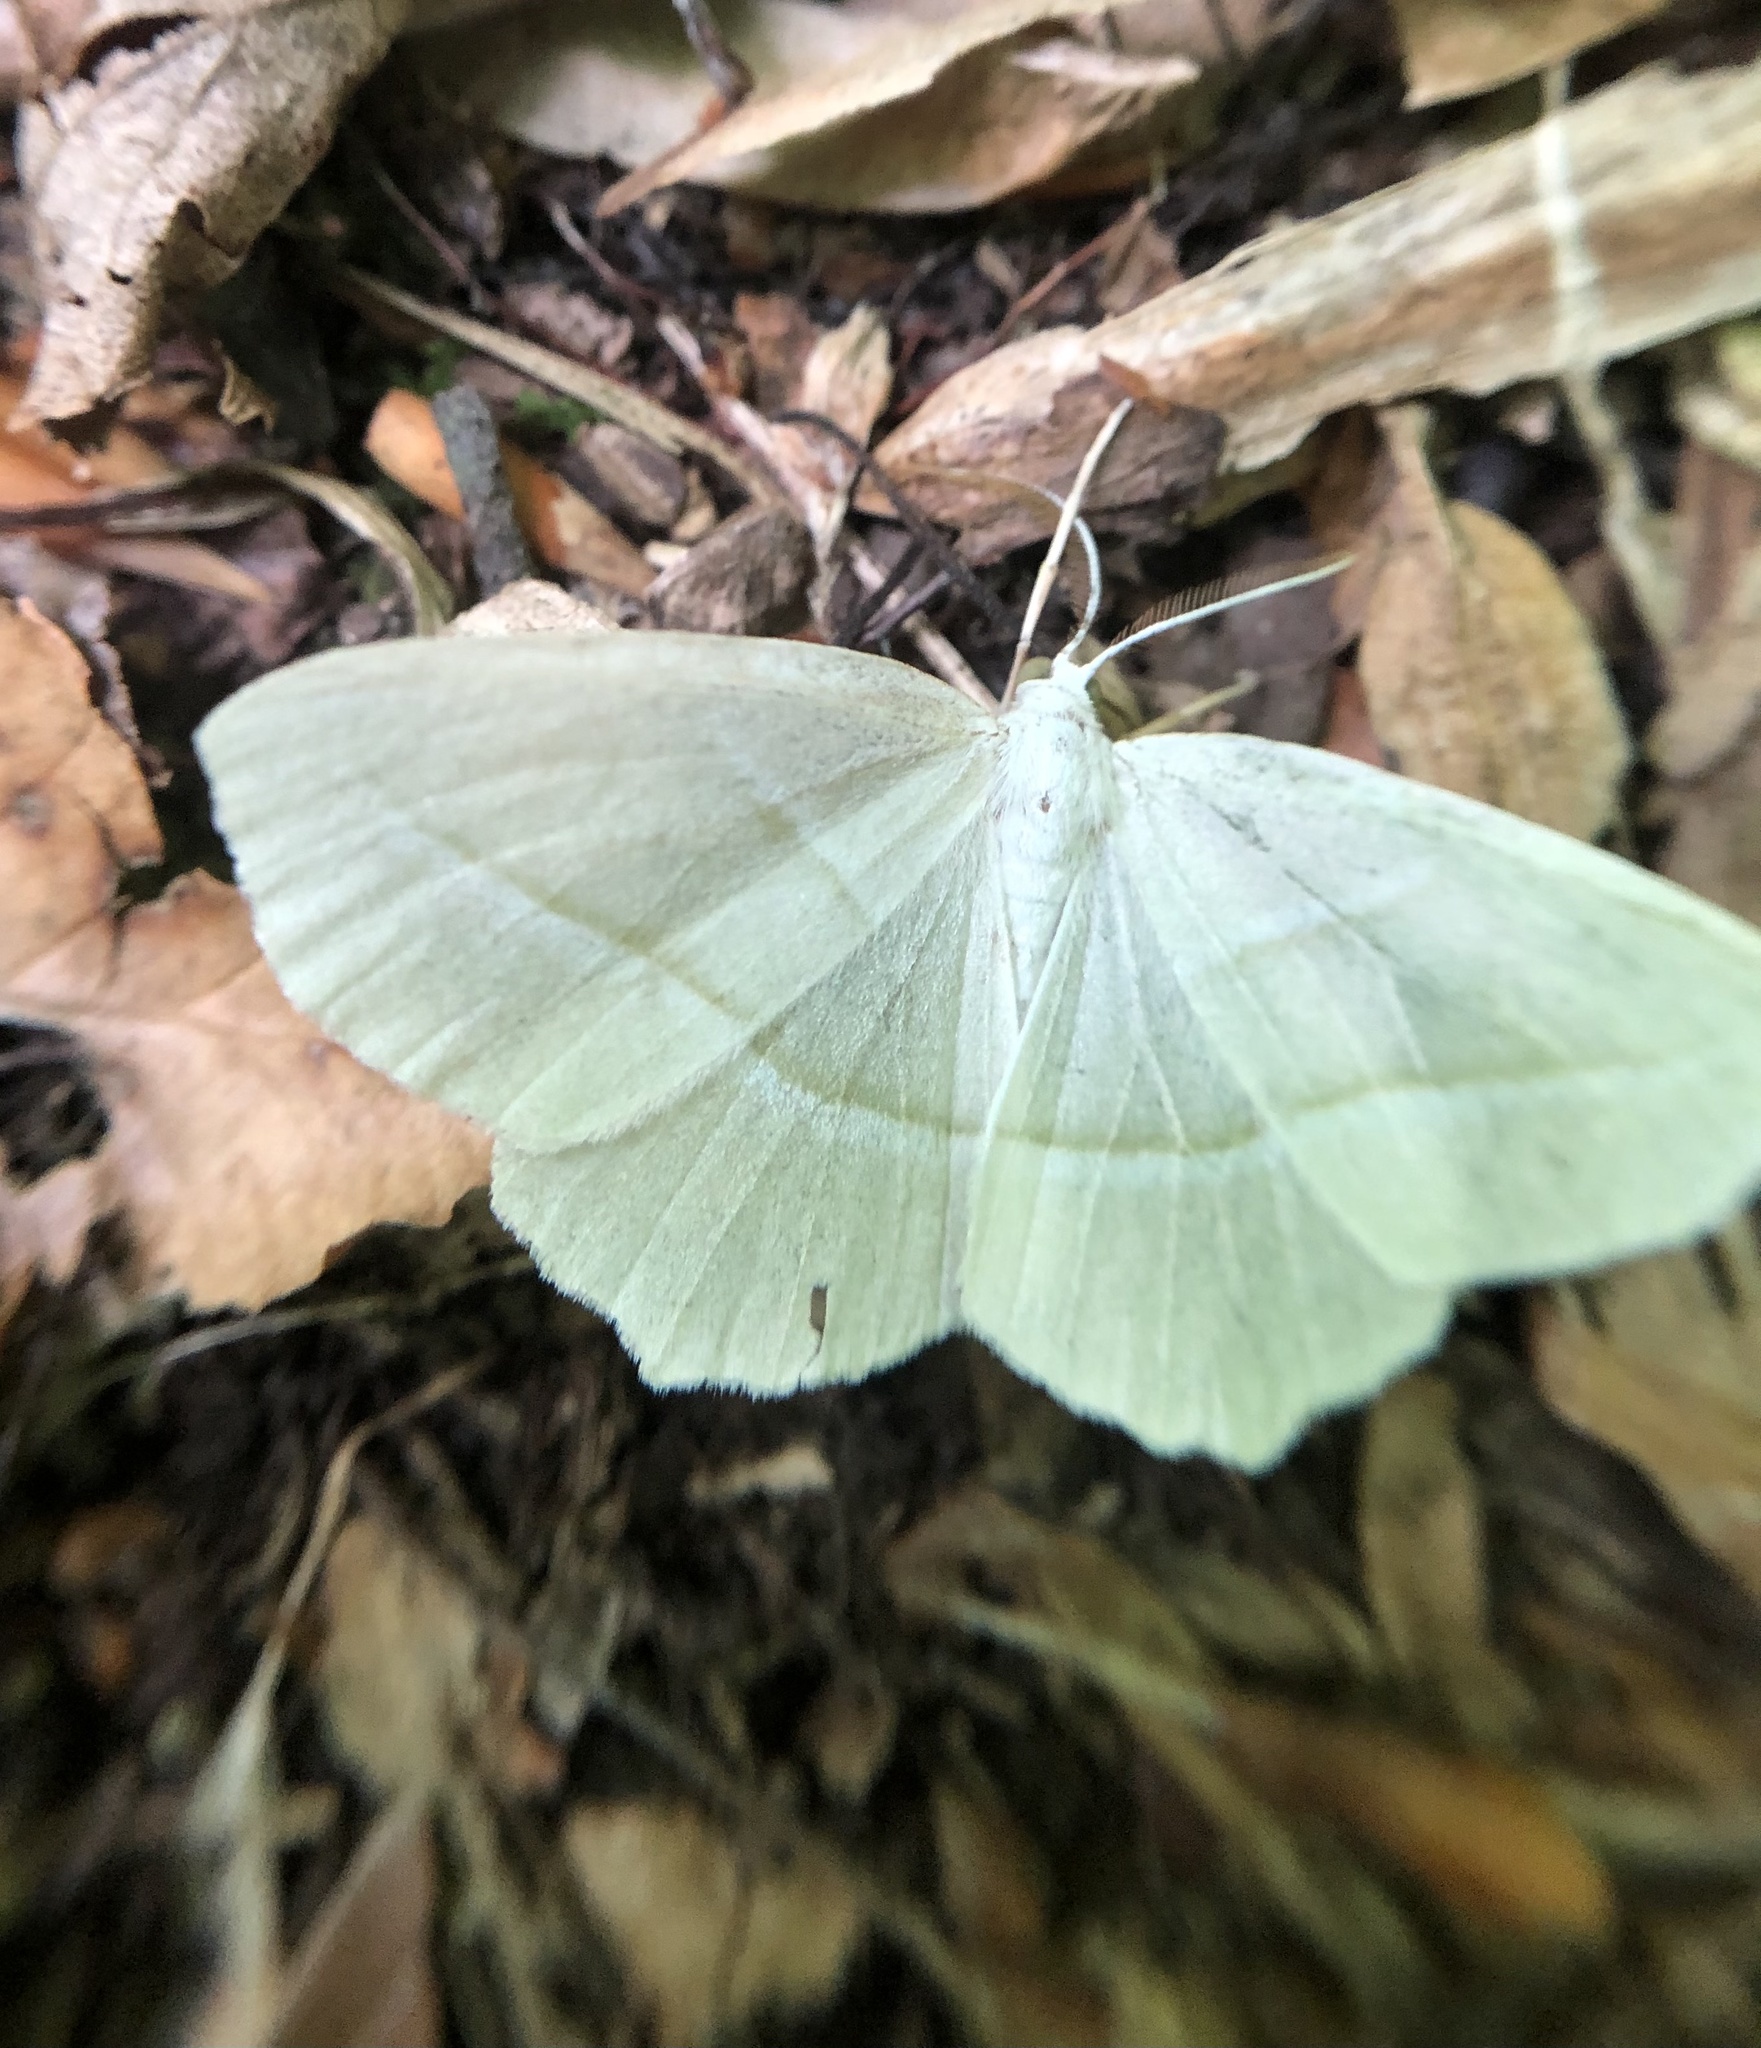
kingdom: Animalia
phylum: Arthropoda
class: Insecta
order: Lepidoptera
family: Geometridae
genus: Campaea
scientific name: Campaea perlata
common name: Fringed looper
